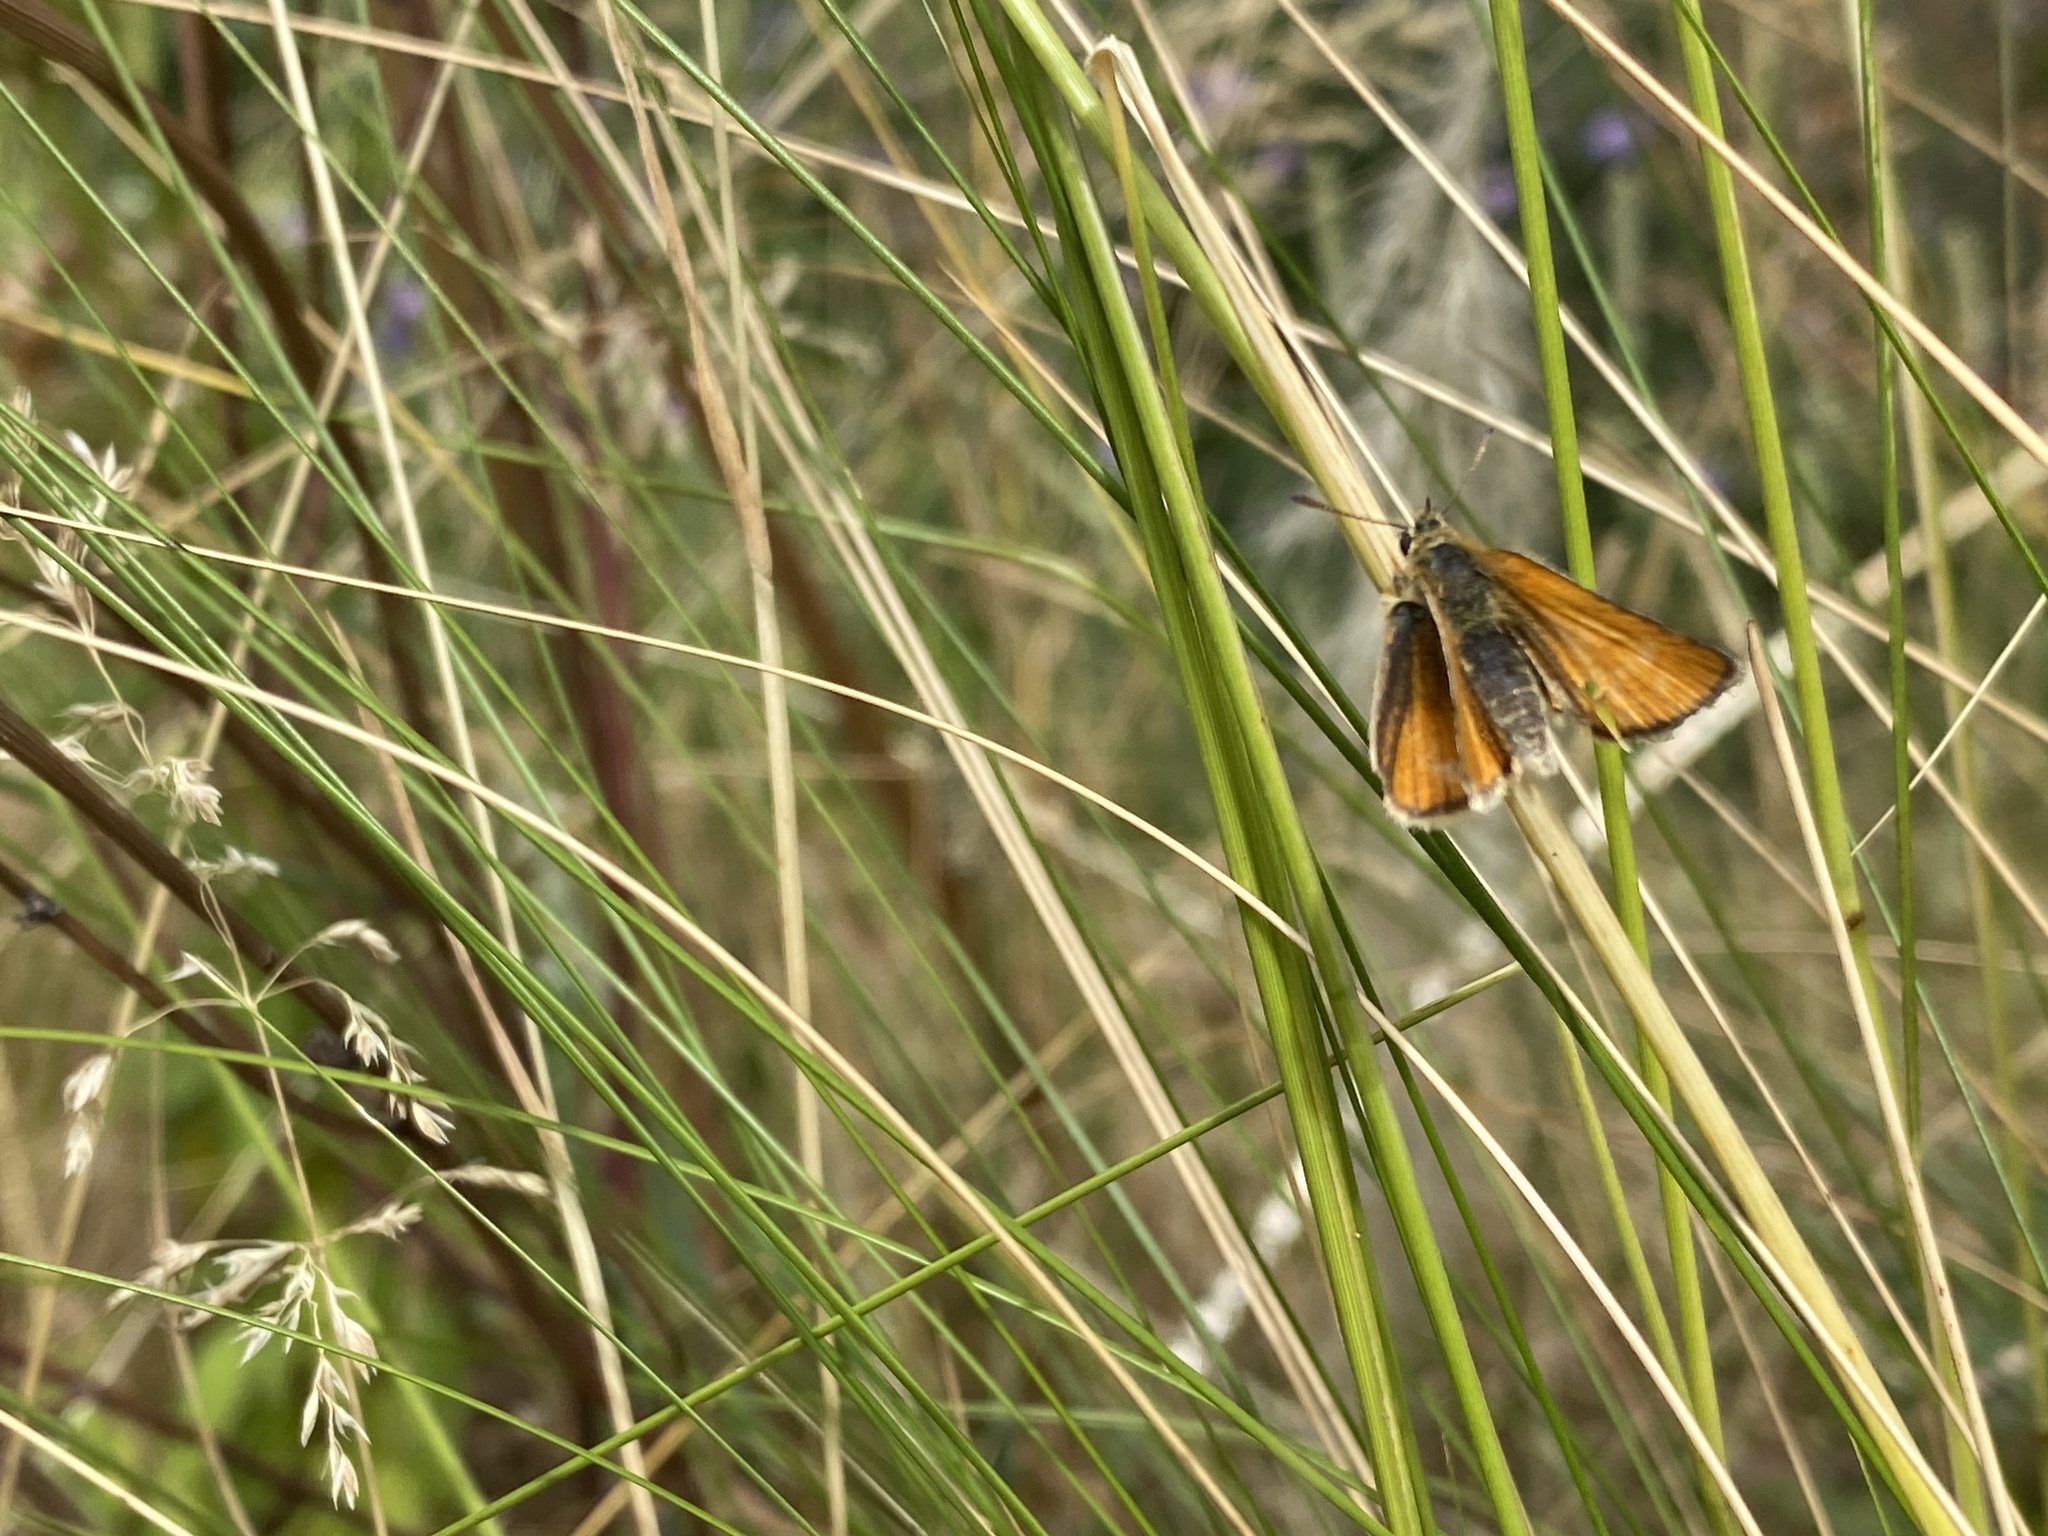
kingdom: Animalia
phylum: Arthropoda
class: Insecta
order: Lepidoptera
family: Hesperiidae
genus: Thymelicus
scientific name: Thymelicus lineola
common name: Essex skipper
